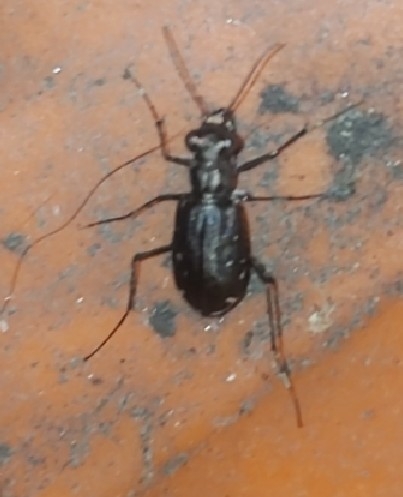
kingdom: Animalia
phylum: Arthropoda
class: Insecta
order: Coleoptera
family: Carabidae
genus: Cicindela
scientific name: Cicindela punctulata
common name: Punctured tiger beetle
